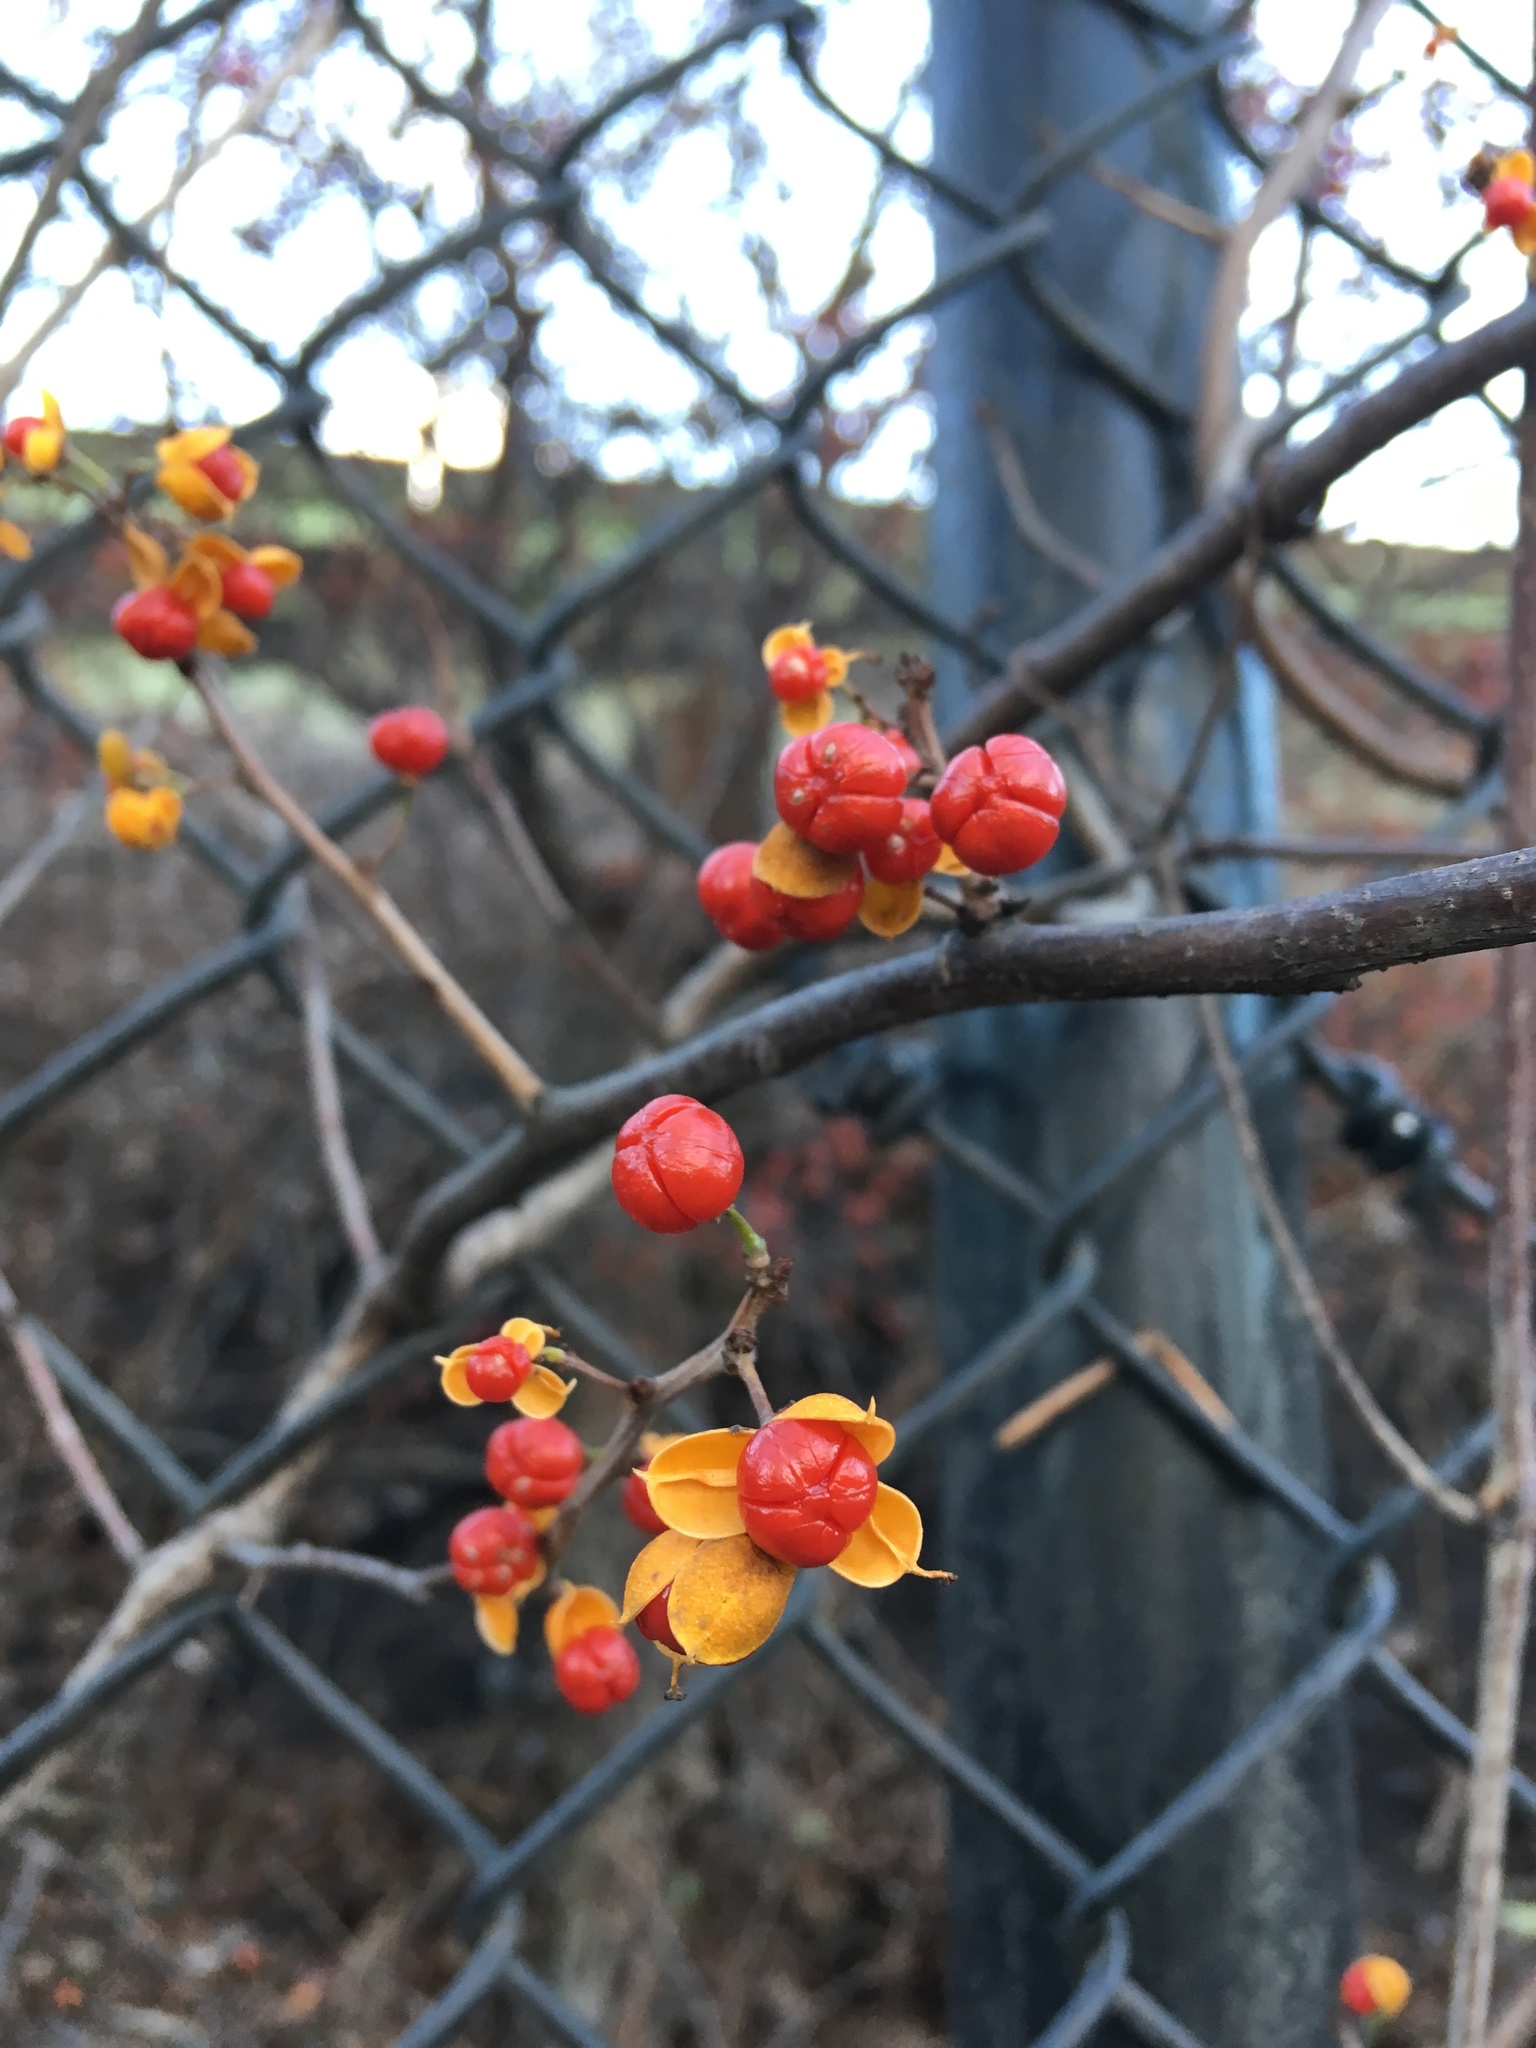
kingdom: Plantae
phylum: Tracheophyta
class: Magnoliopsida
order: Celastrales
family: Celastraceae
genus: Celastrus
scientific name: Celastrus orbiculatus
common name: Oriental bittersweet
